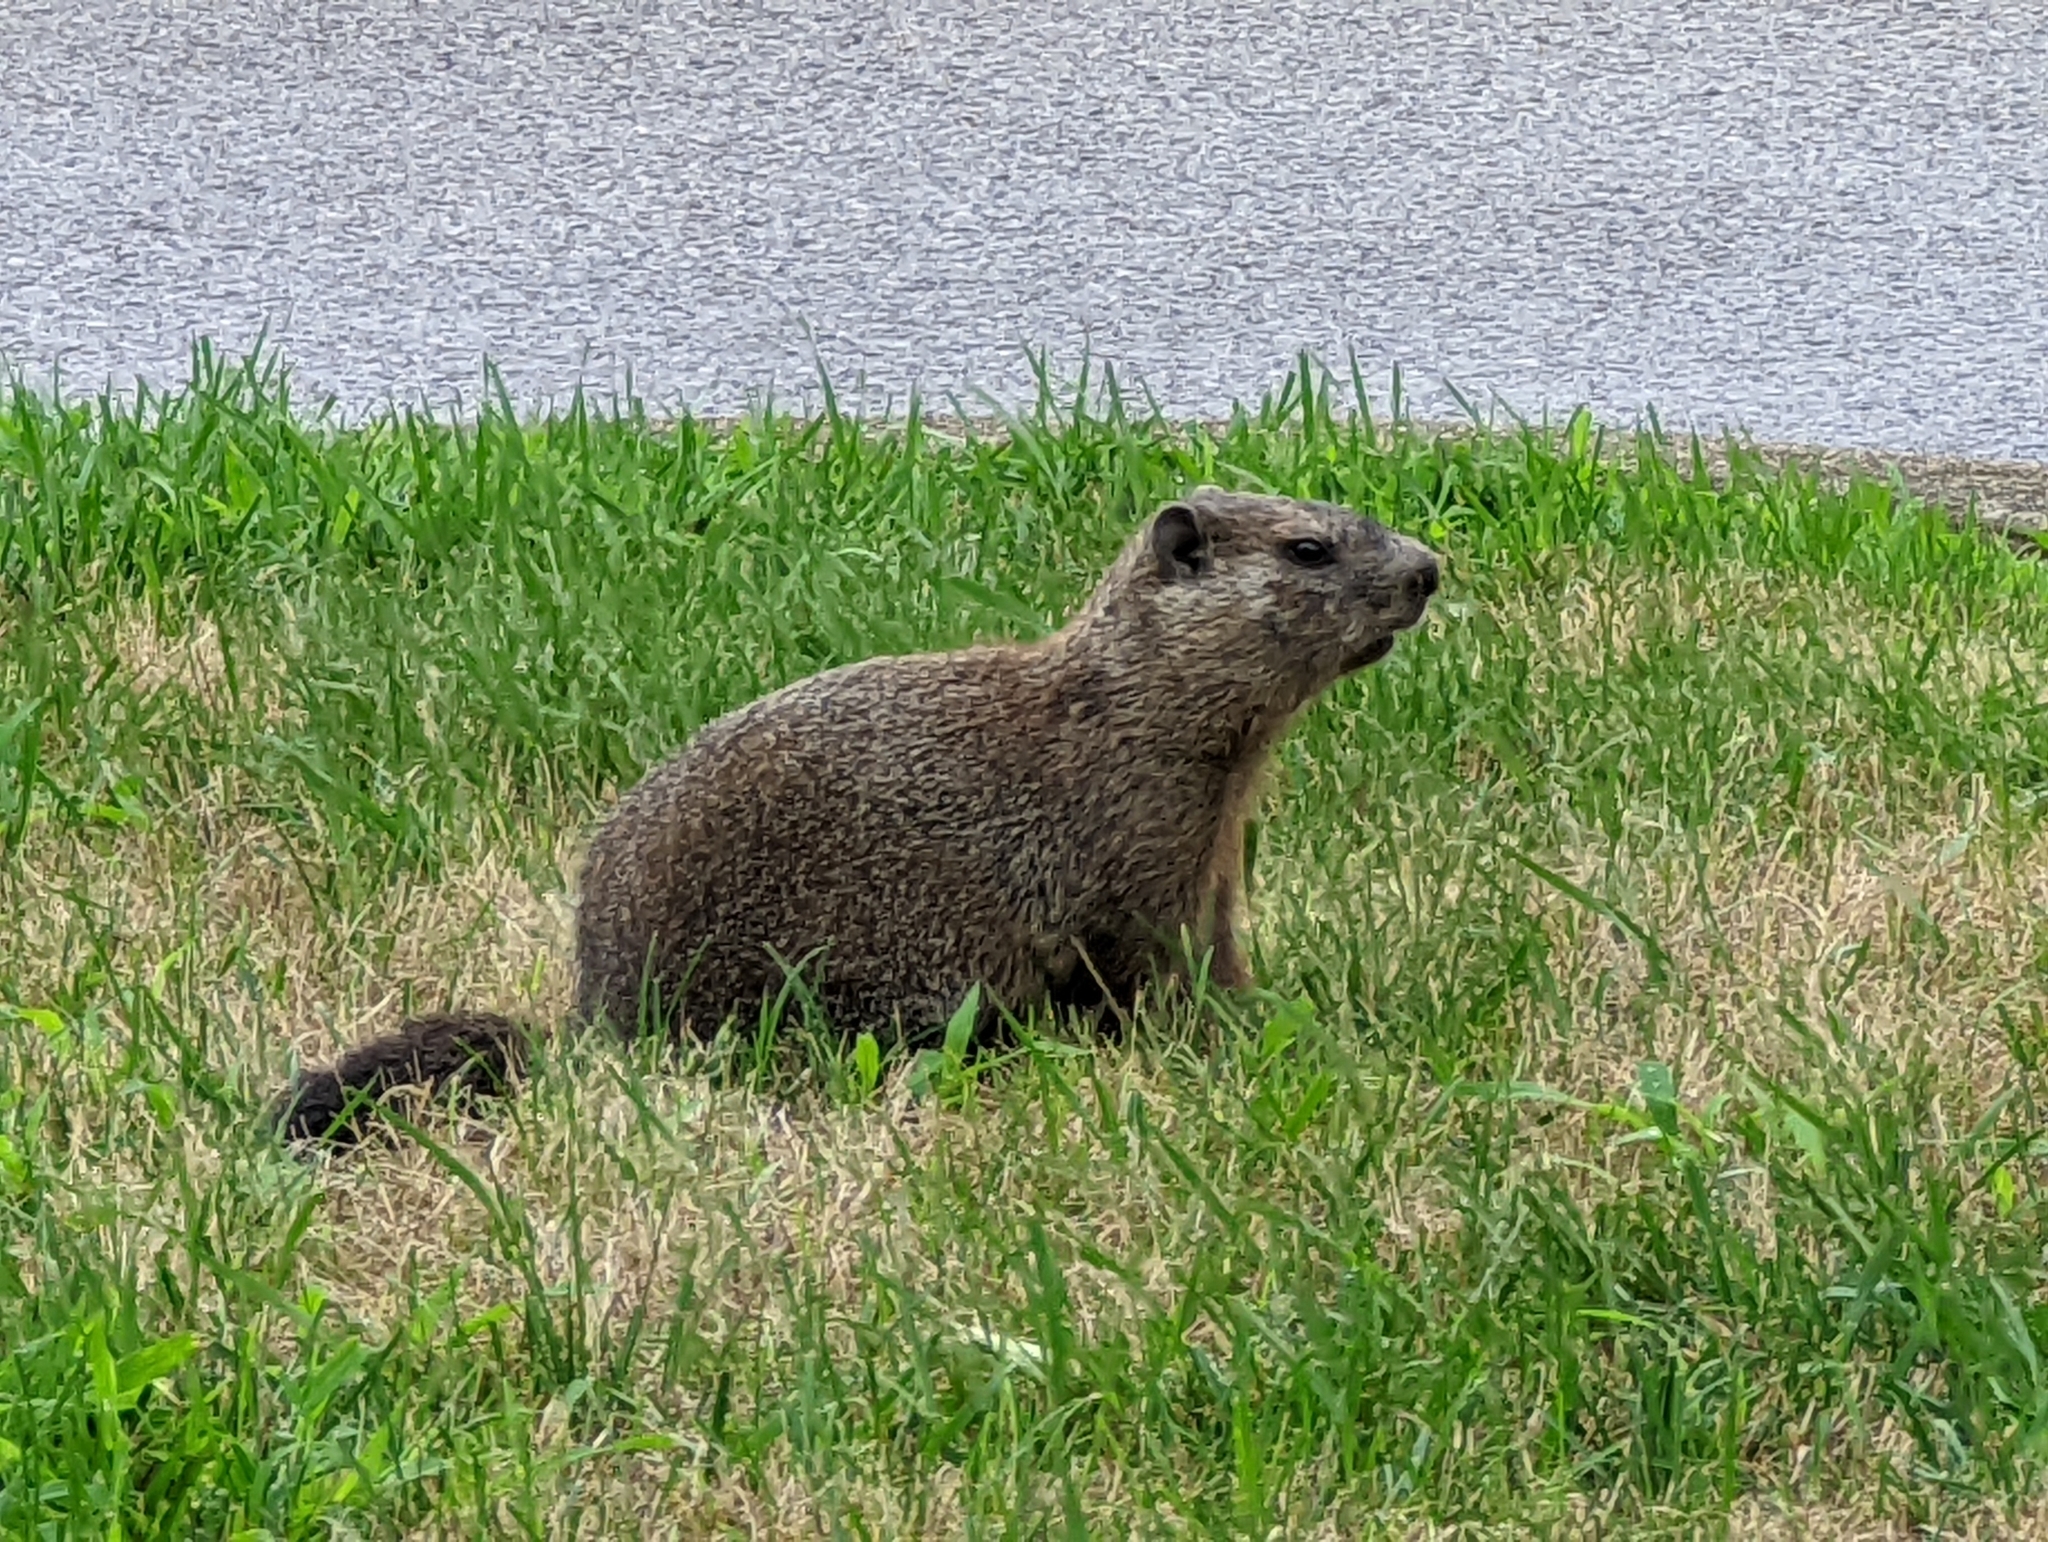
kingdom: Animalia
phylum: Chordata
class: Mammalia
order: Rodentia
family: Sciuridae
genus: Marmota
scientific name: Marmota monax
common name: Groundhog
